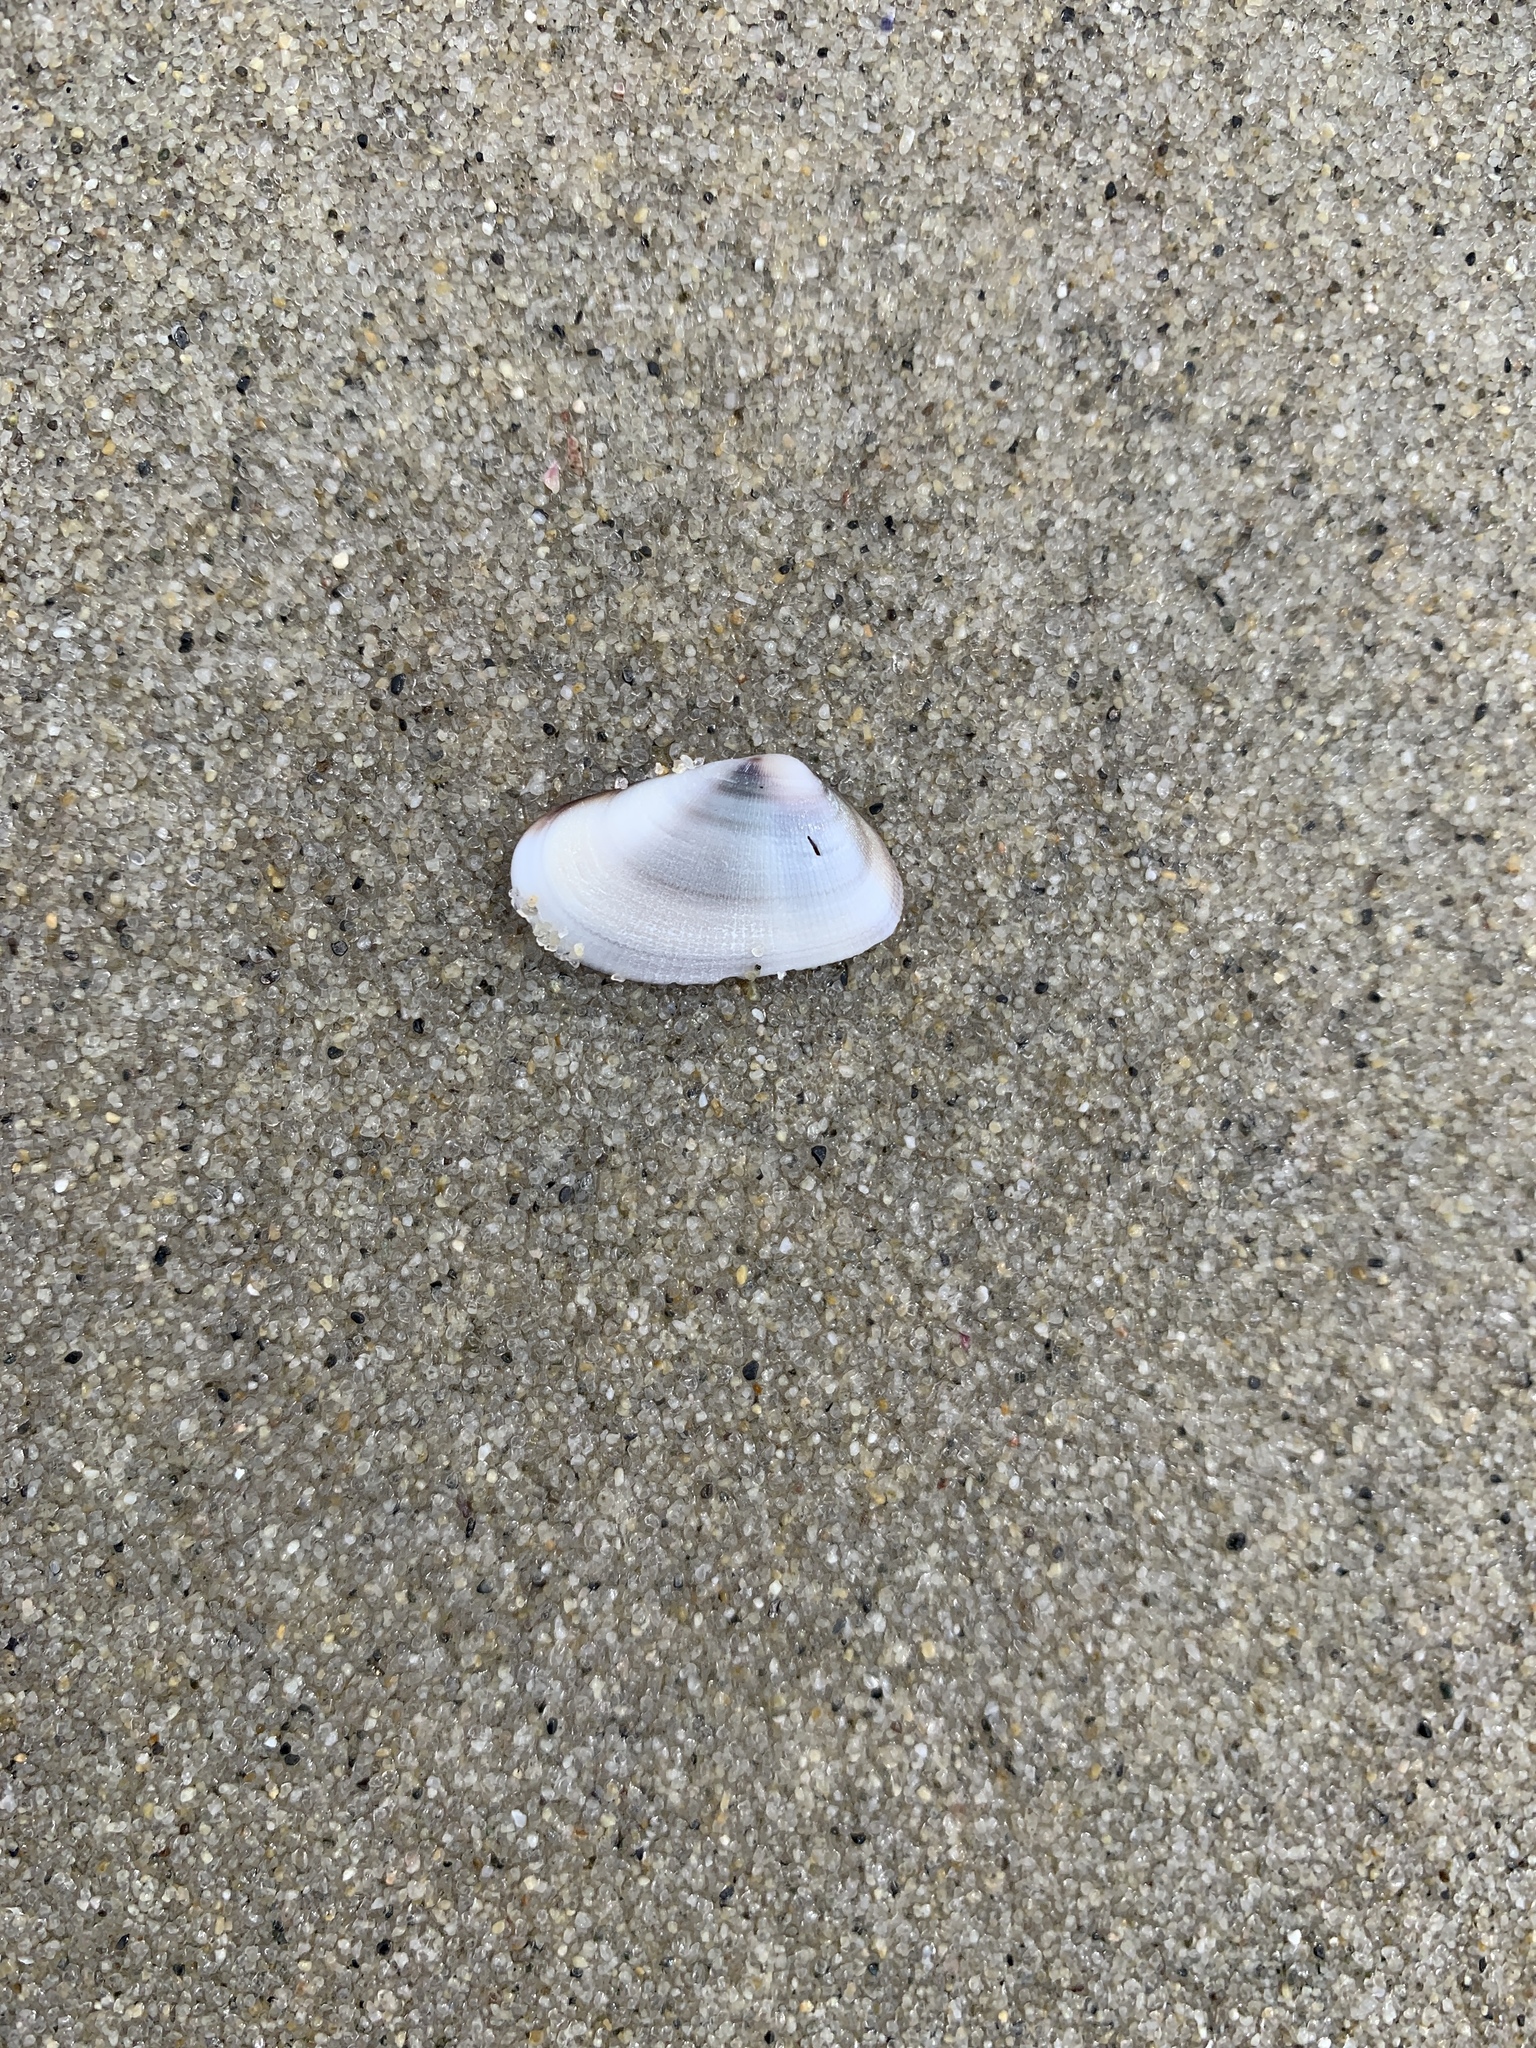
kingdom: Animalia
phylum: Mollusca
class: Bivalvia
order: Cardiida
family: Donacidae
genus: Donax
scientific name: Donax gouldii
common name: Gould beanclam
